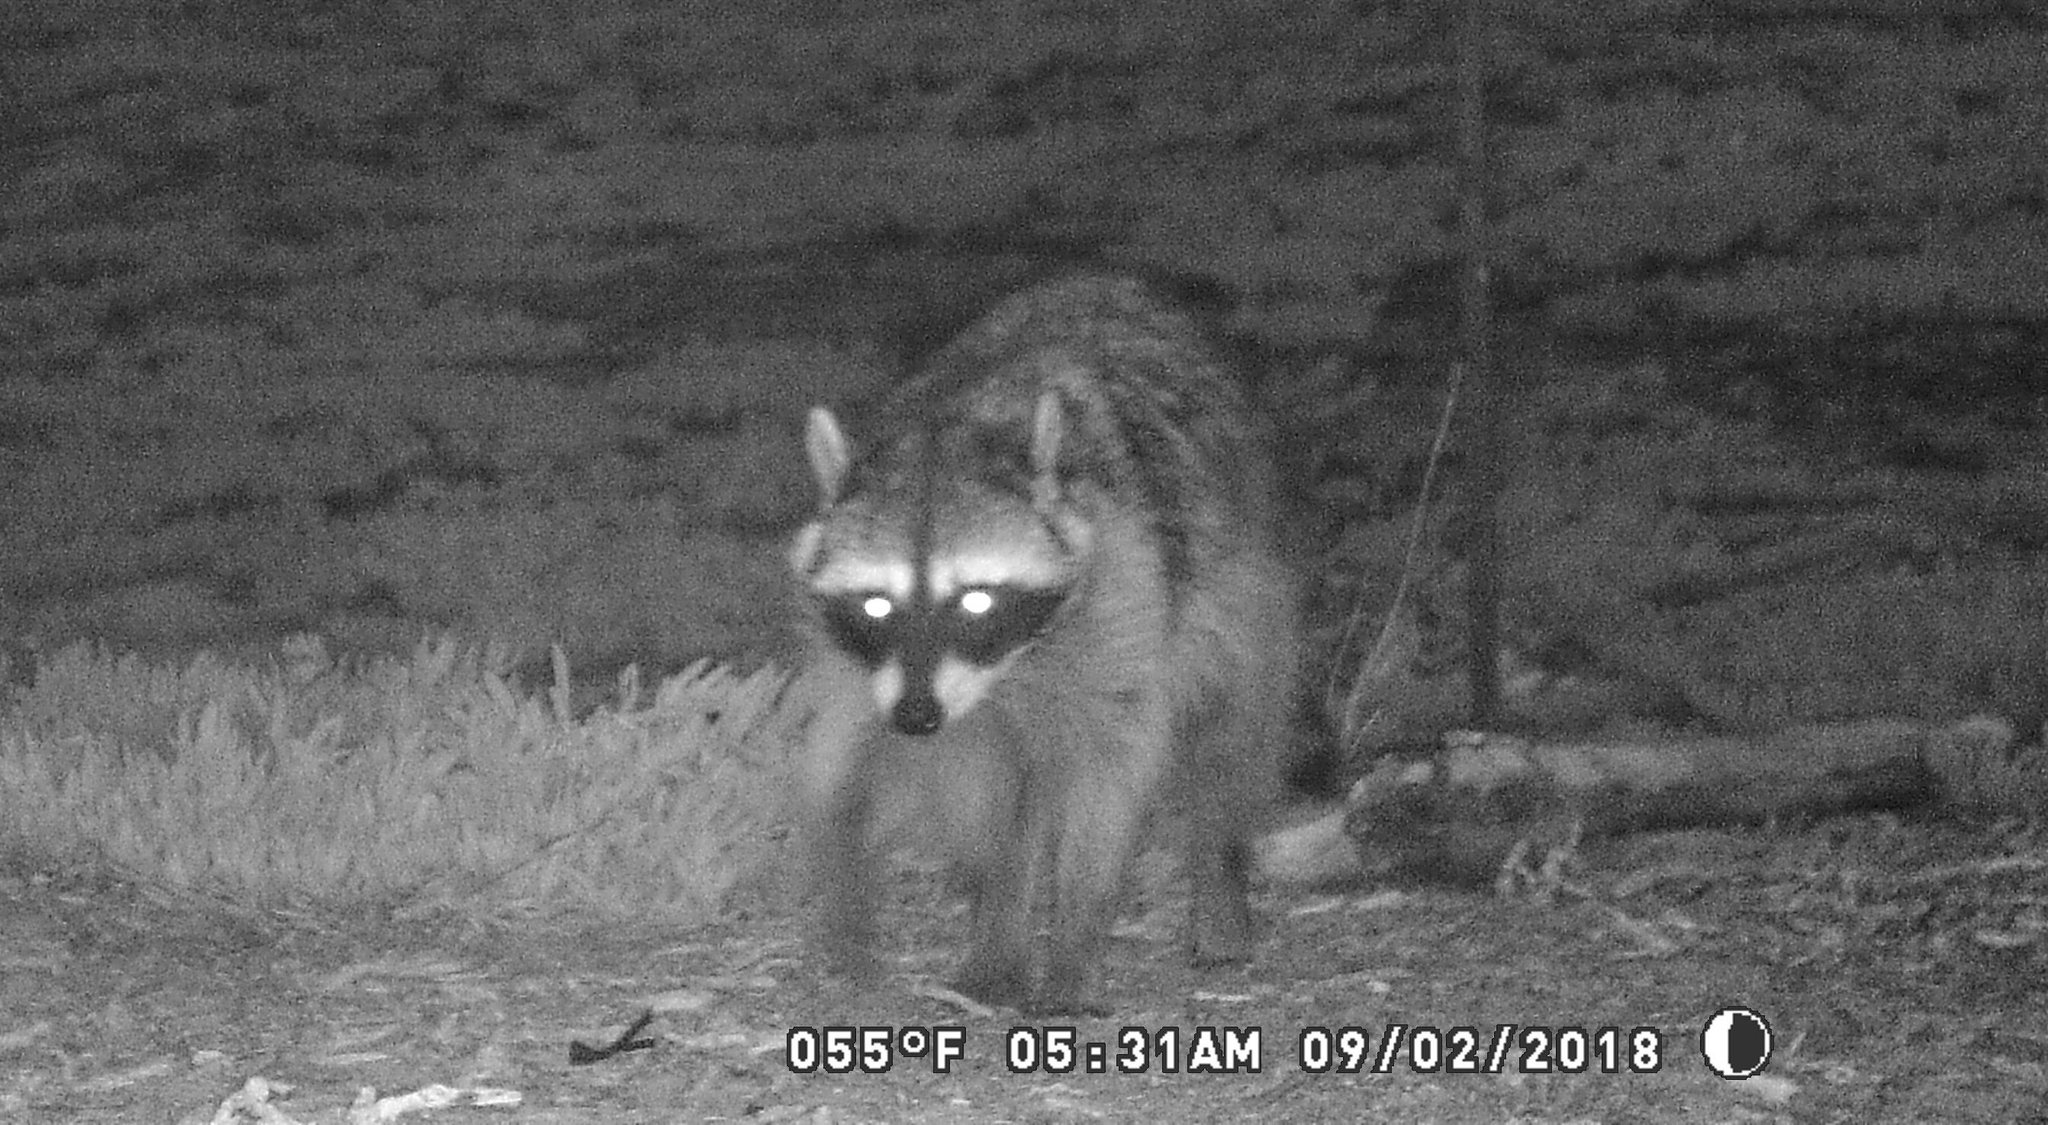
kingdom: Animalia
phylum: Chordata
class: Mammalia
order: Carnivora
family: Procyonidae
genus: Procyon
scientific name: Procyon lotor
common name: Raccoon
